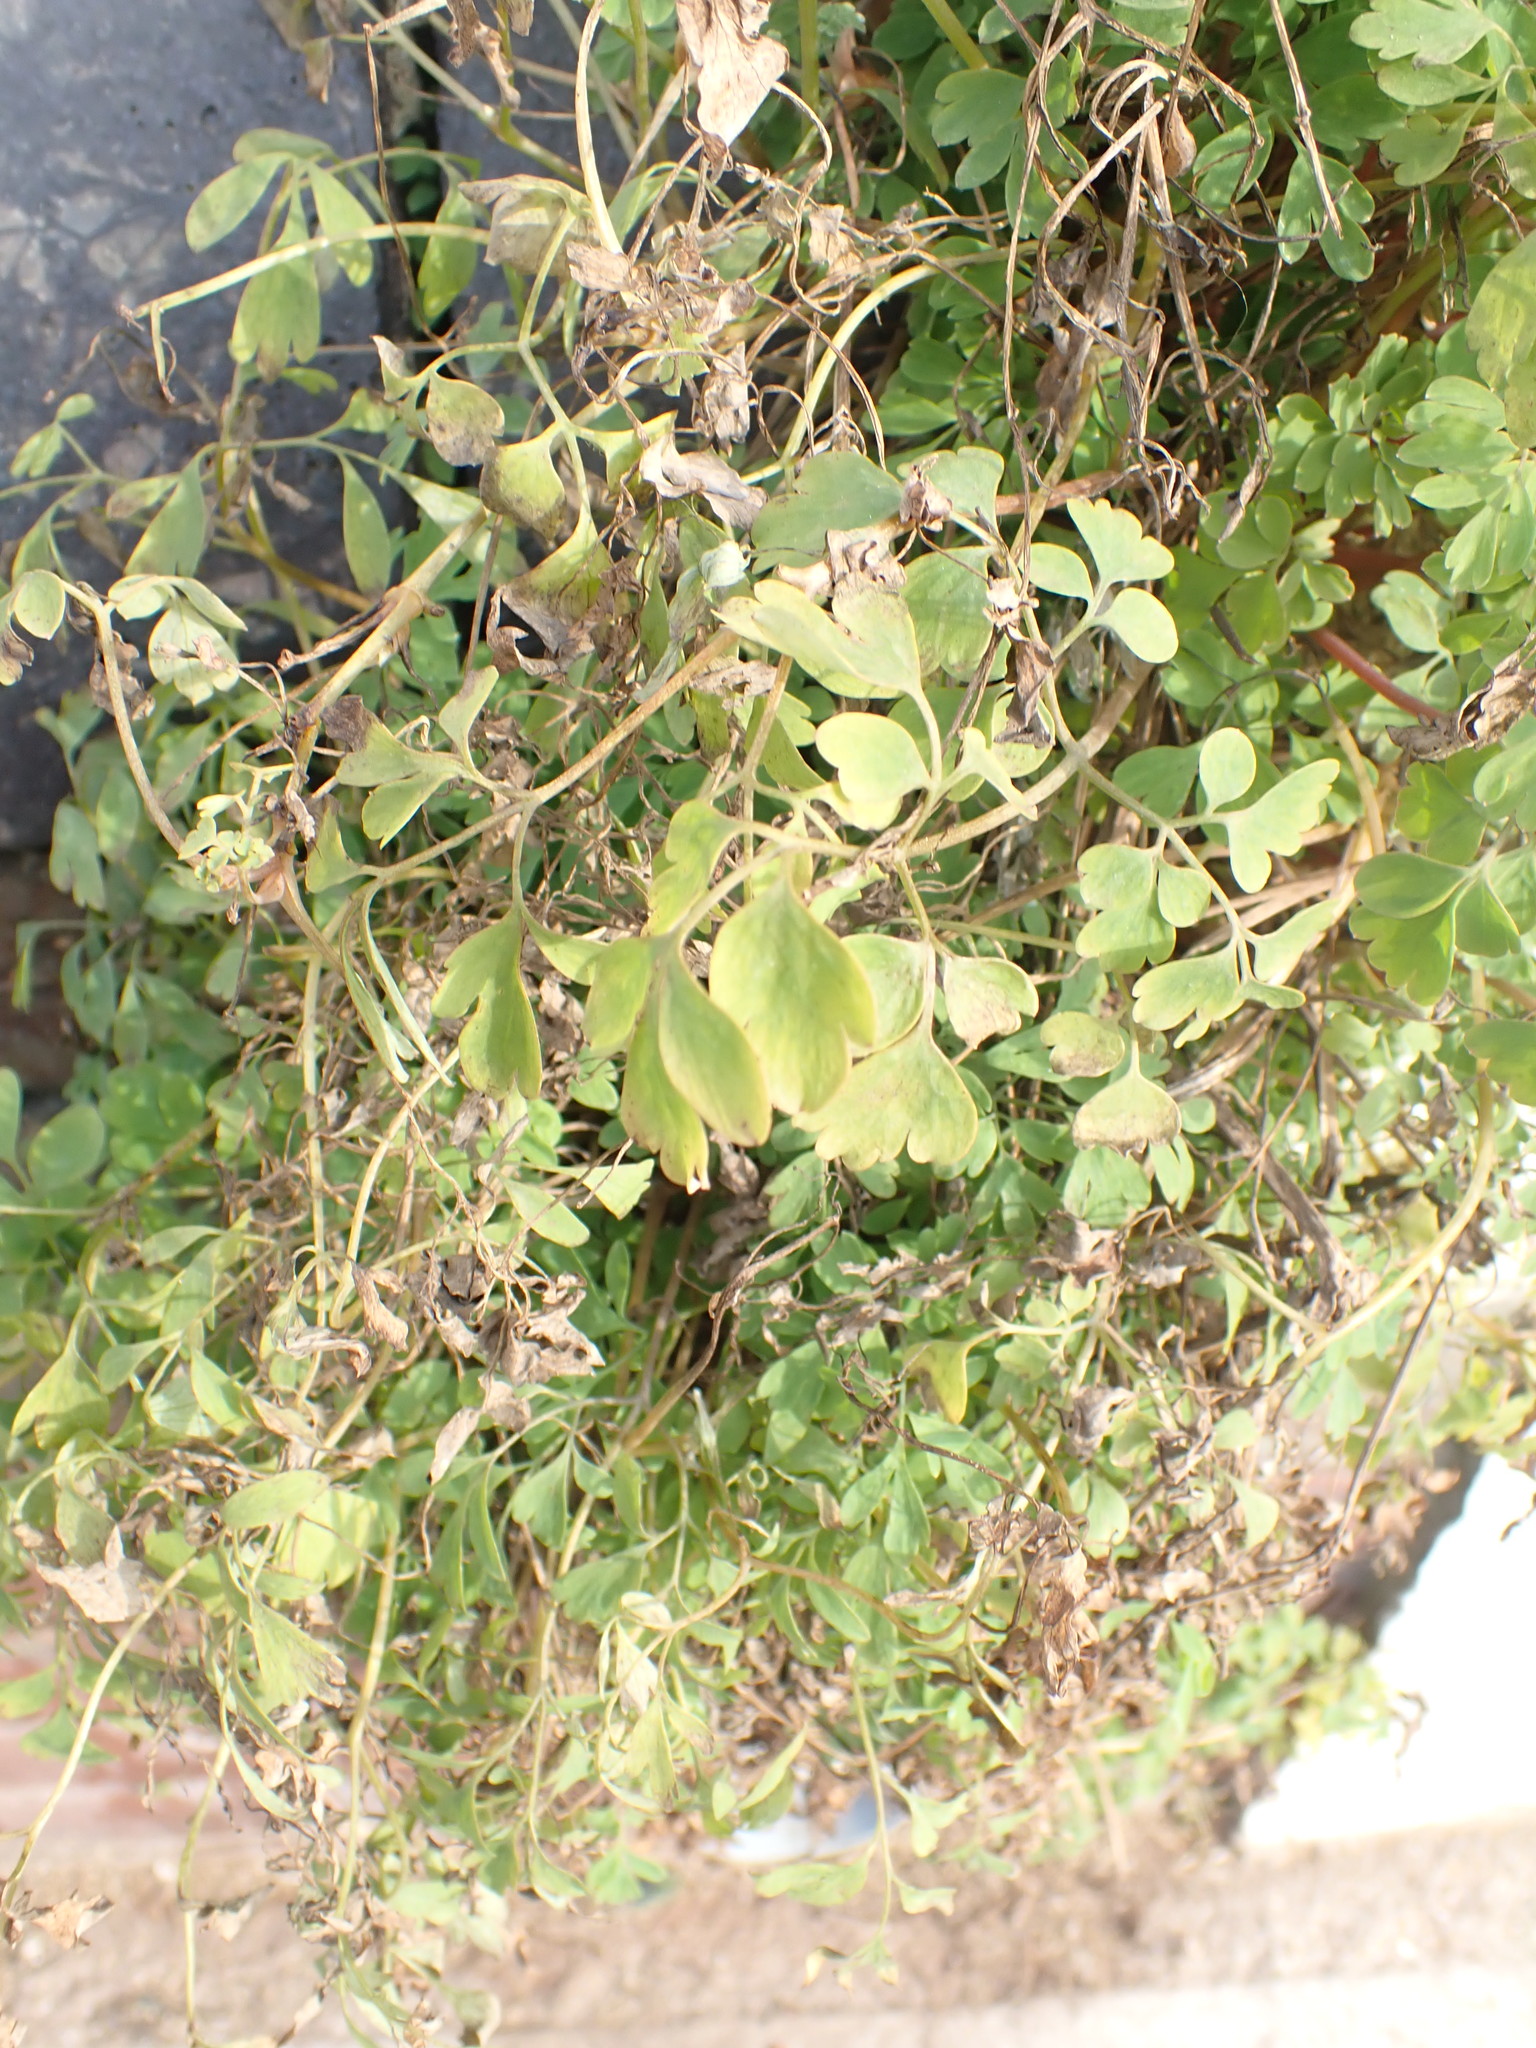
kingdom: Plantae
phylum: Tracheophyta
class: Magnoliopsida
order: Ranunculales
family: Papaveraceae
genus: Pseudofumaria
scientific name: Pseudofumaria lutea
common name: Yellow corydalis
